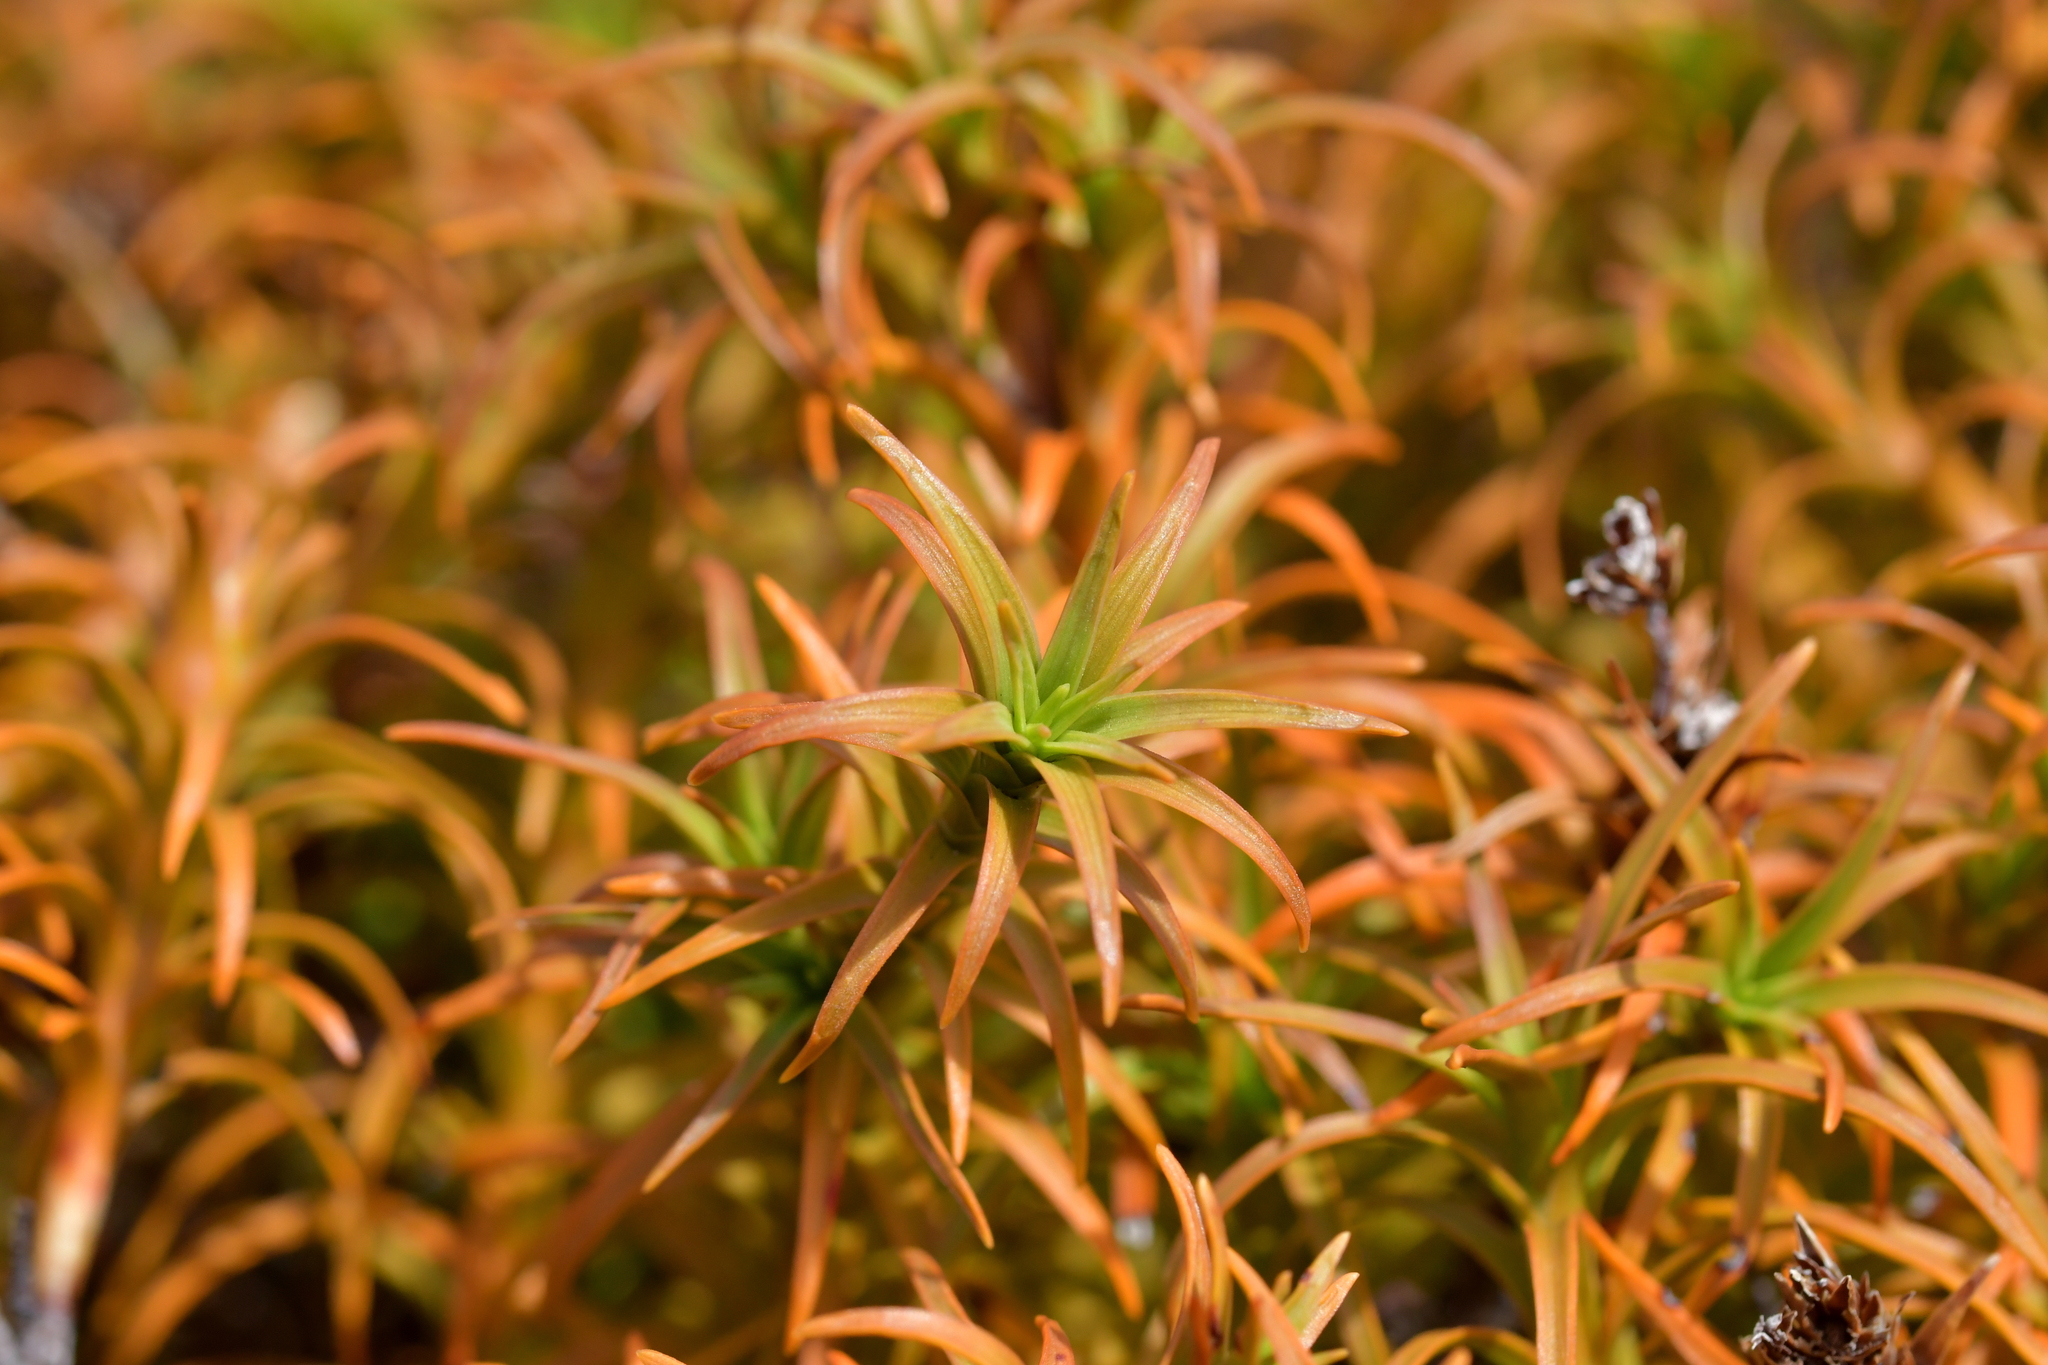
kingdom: Plantae
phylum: Tracheophyta
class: Magnoliopsida
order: Ericales
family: Ericaceae
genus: Dracophyllum
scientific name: Dracophyllum recurvum
